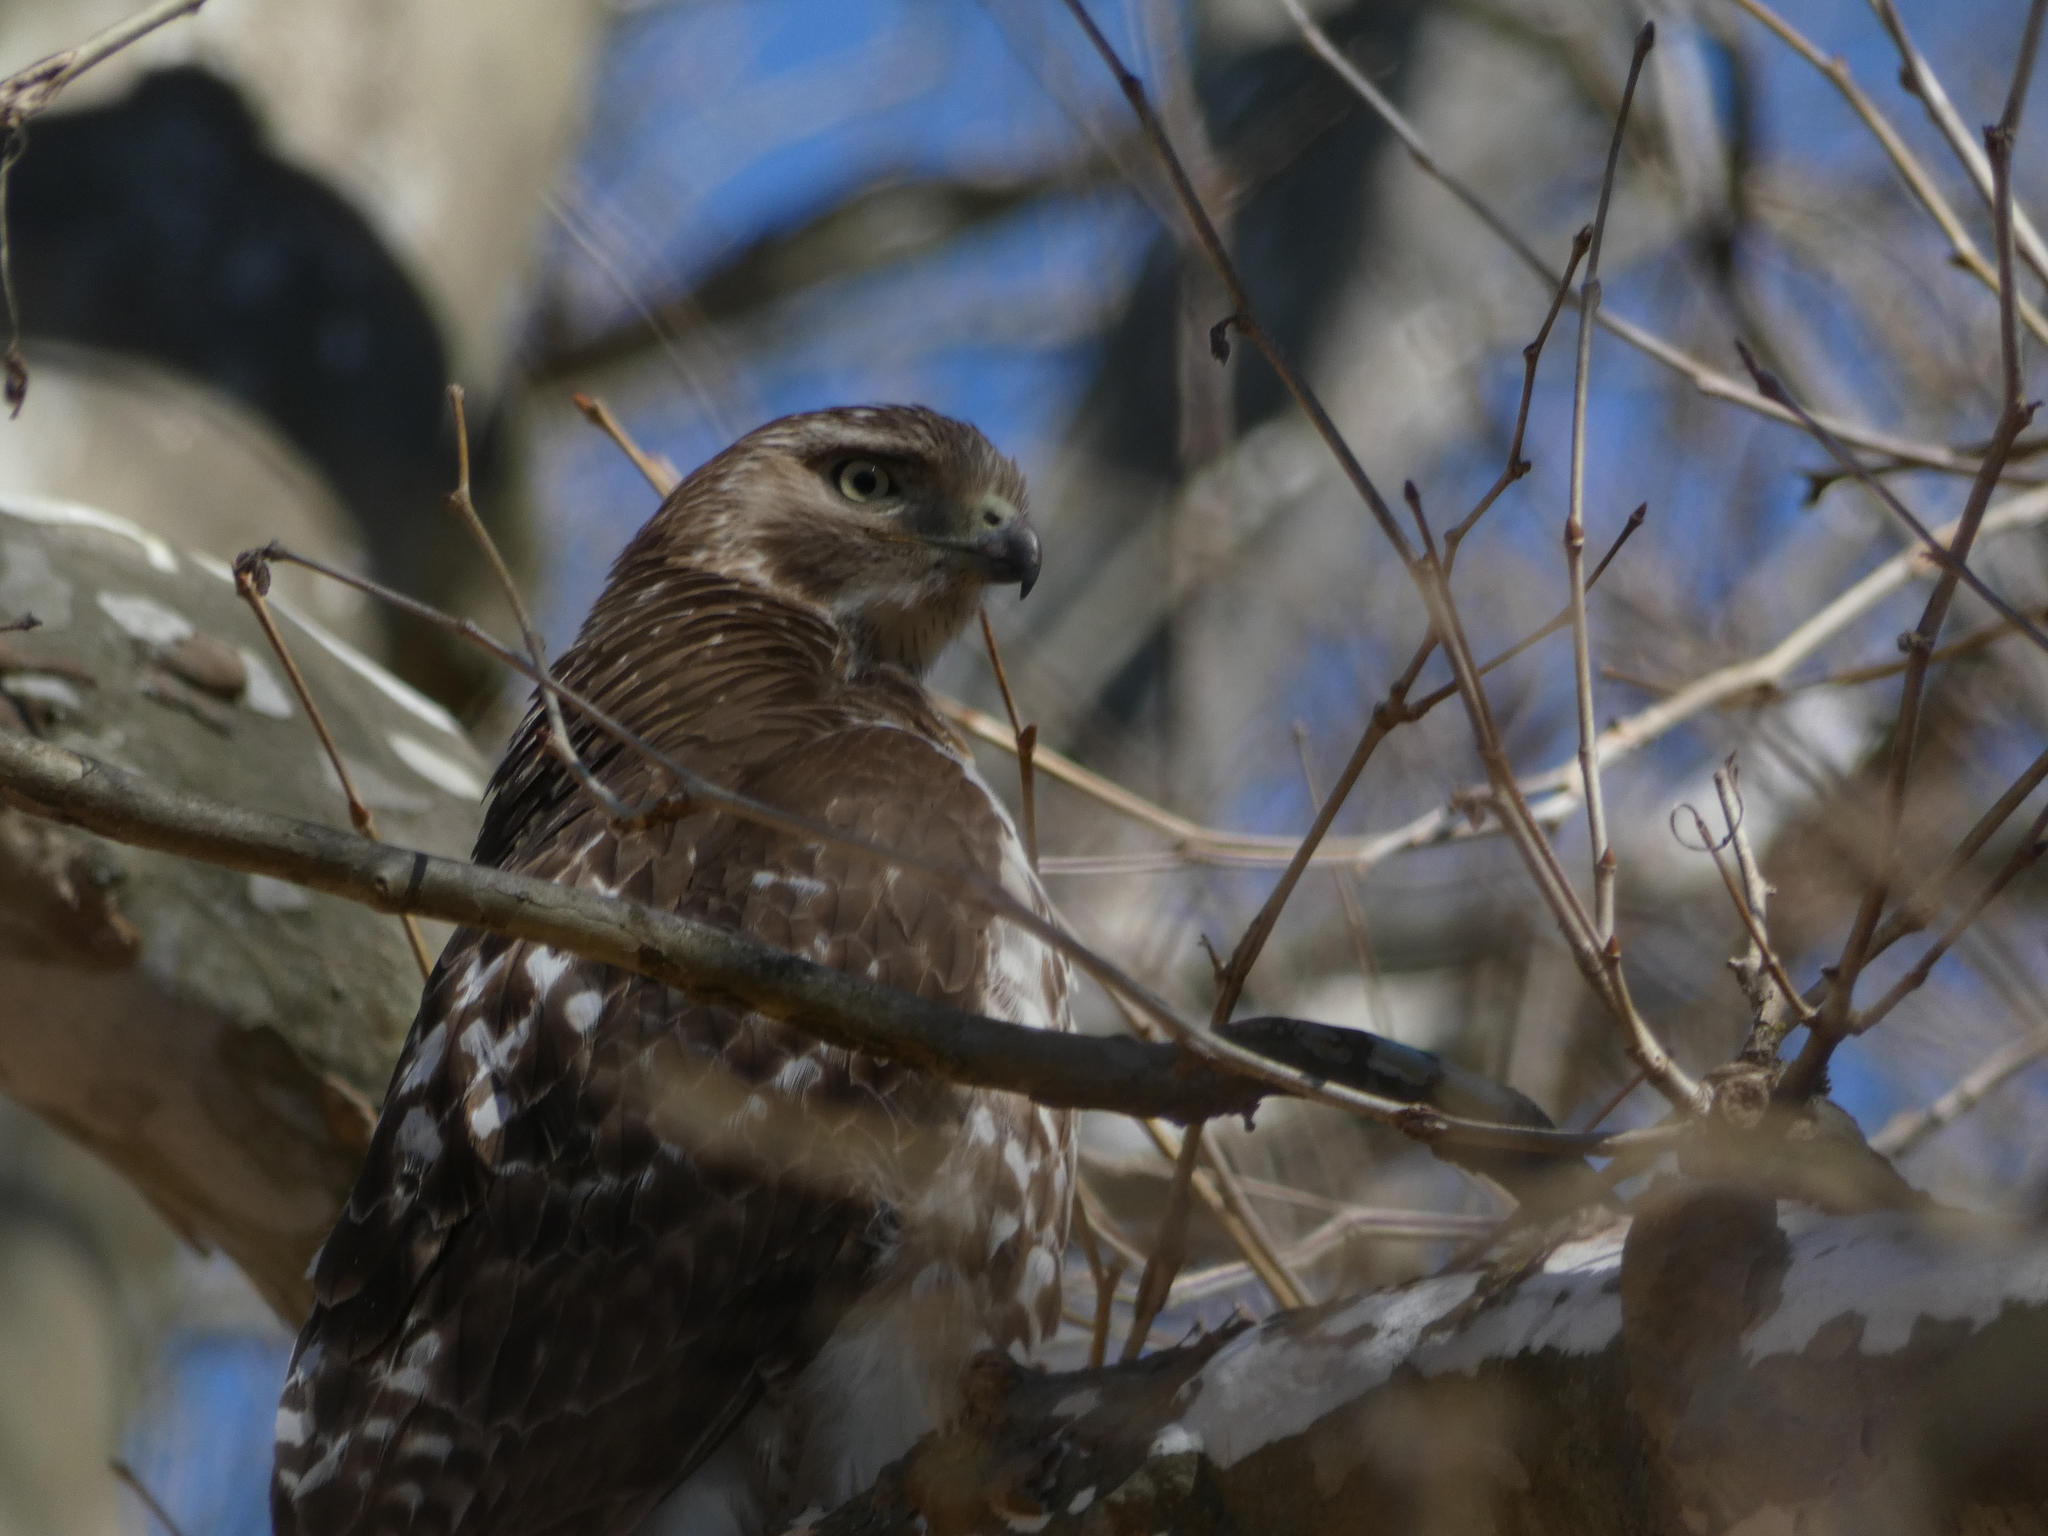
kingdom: Animalia
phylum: Chordata
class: Aves
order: Accipitriformes
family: Accipitridae
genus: Buteo
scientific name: Buteo jamaicensis
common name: Red-tailed hawk
